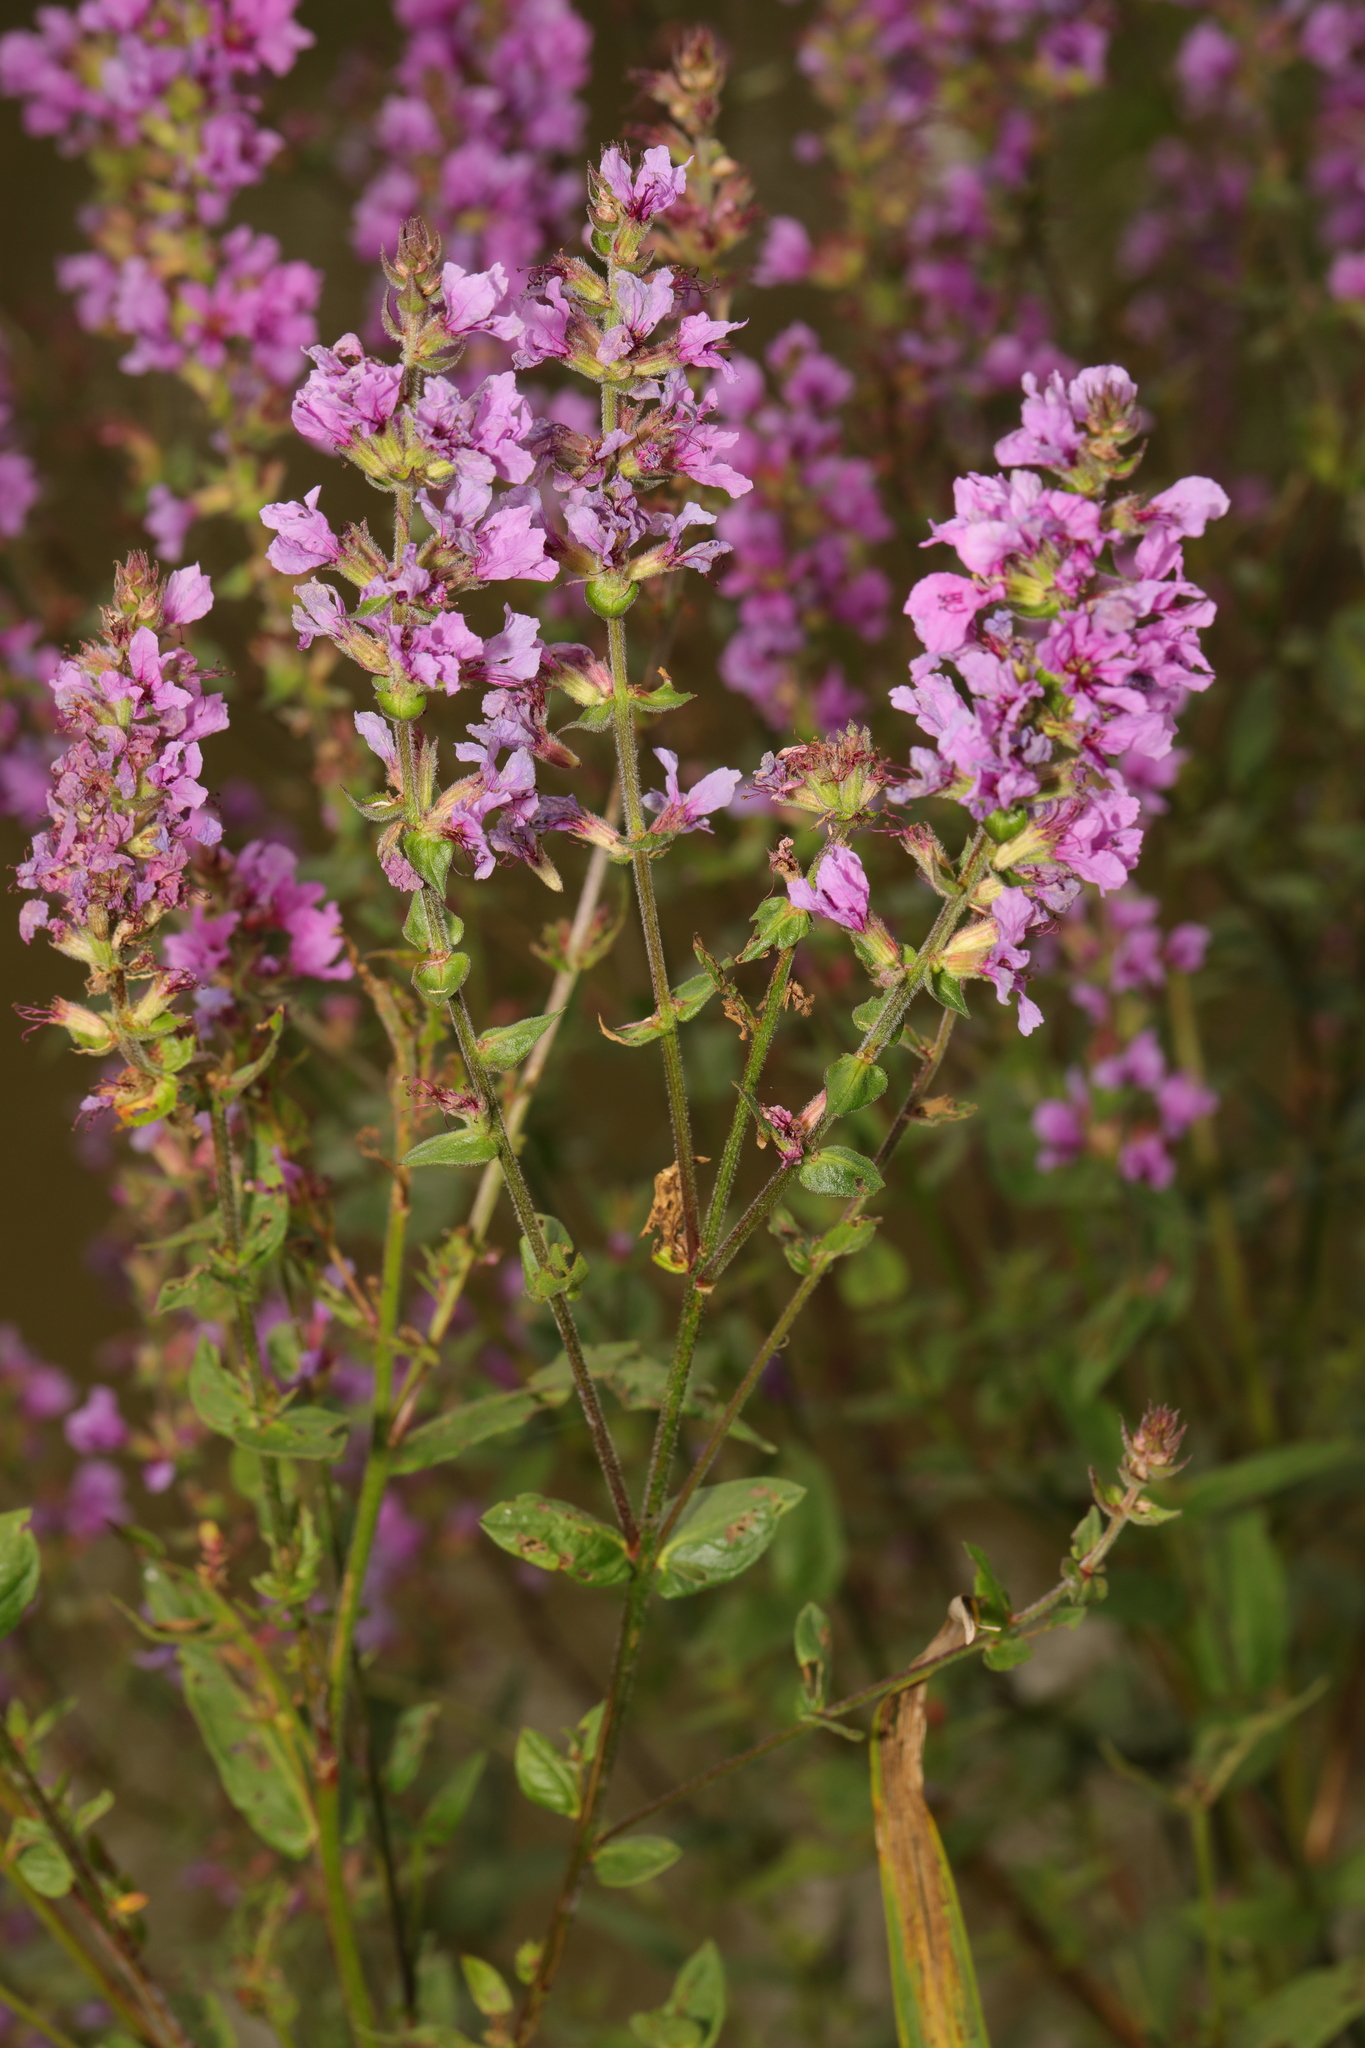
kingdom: Plantae
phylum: Tracheophyta
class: Magnoliopsida
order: Myrtales
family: Lythraceae
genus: Lythrum
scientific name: Lythrum salicaria
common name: Purple loosestrife
